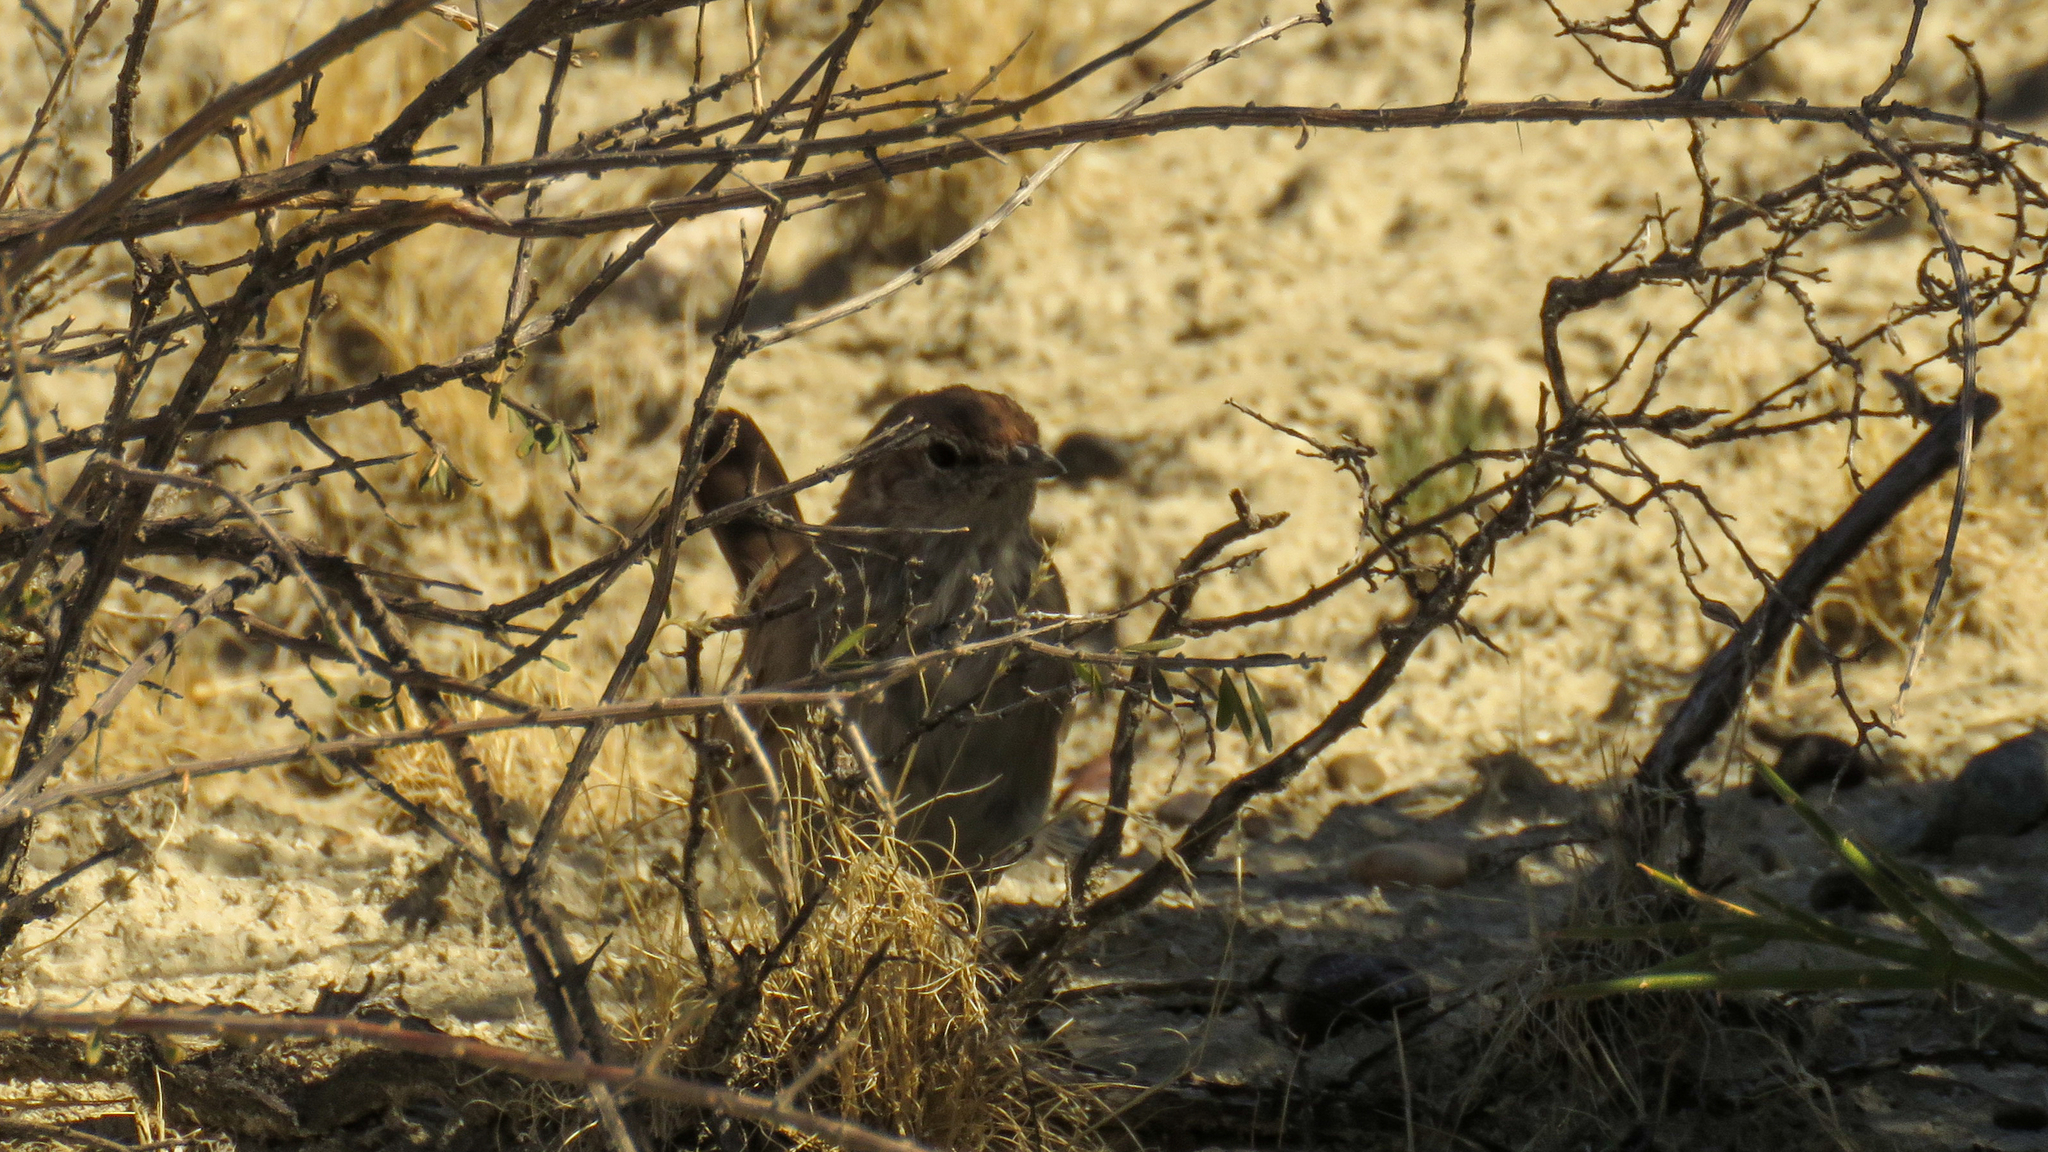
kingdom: Animalia
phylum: Chordata
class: Aves
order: Passeriformes
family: Rhinocryptidae
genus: Teledromas
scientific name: Teledromas fuscus
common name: Sandy gallito
